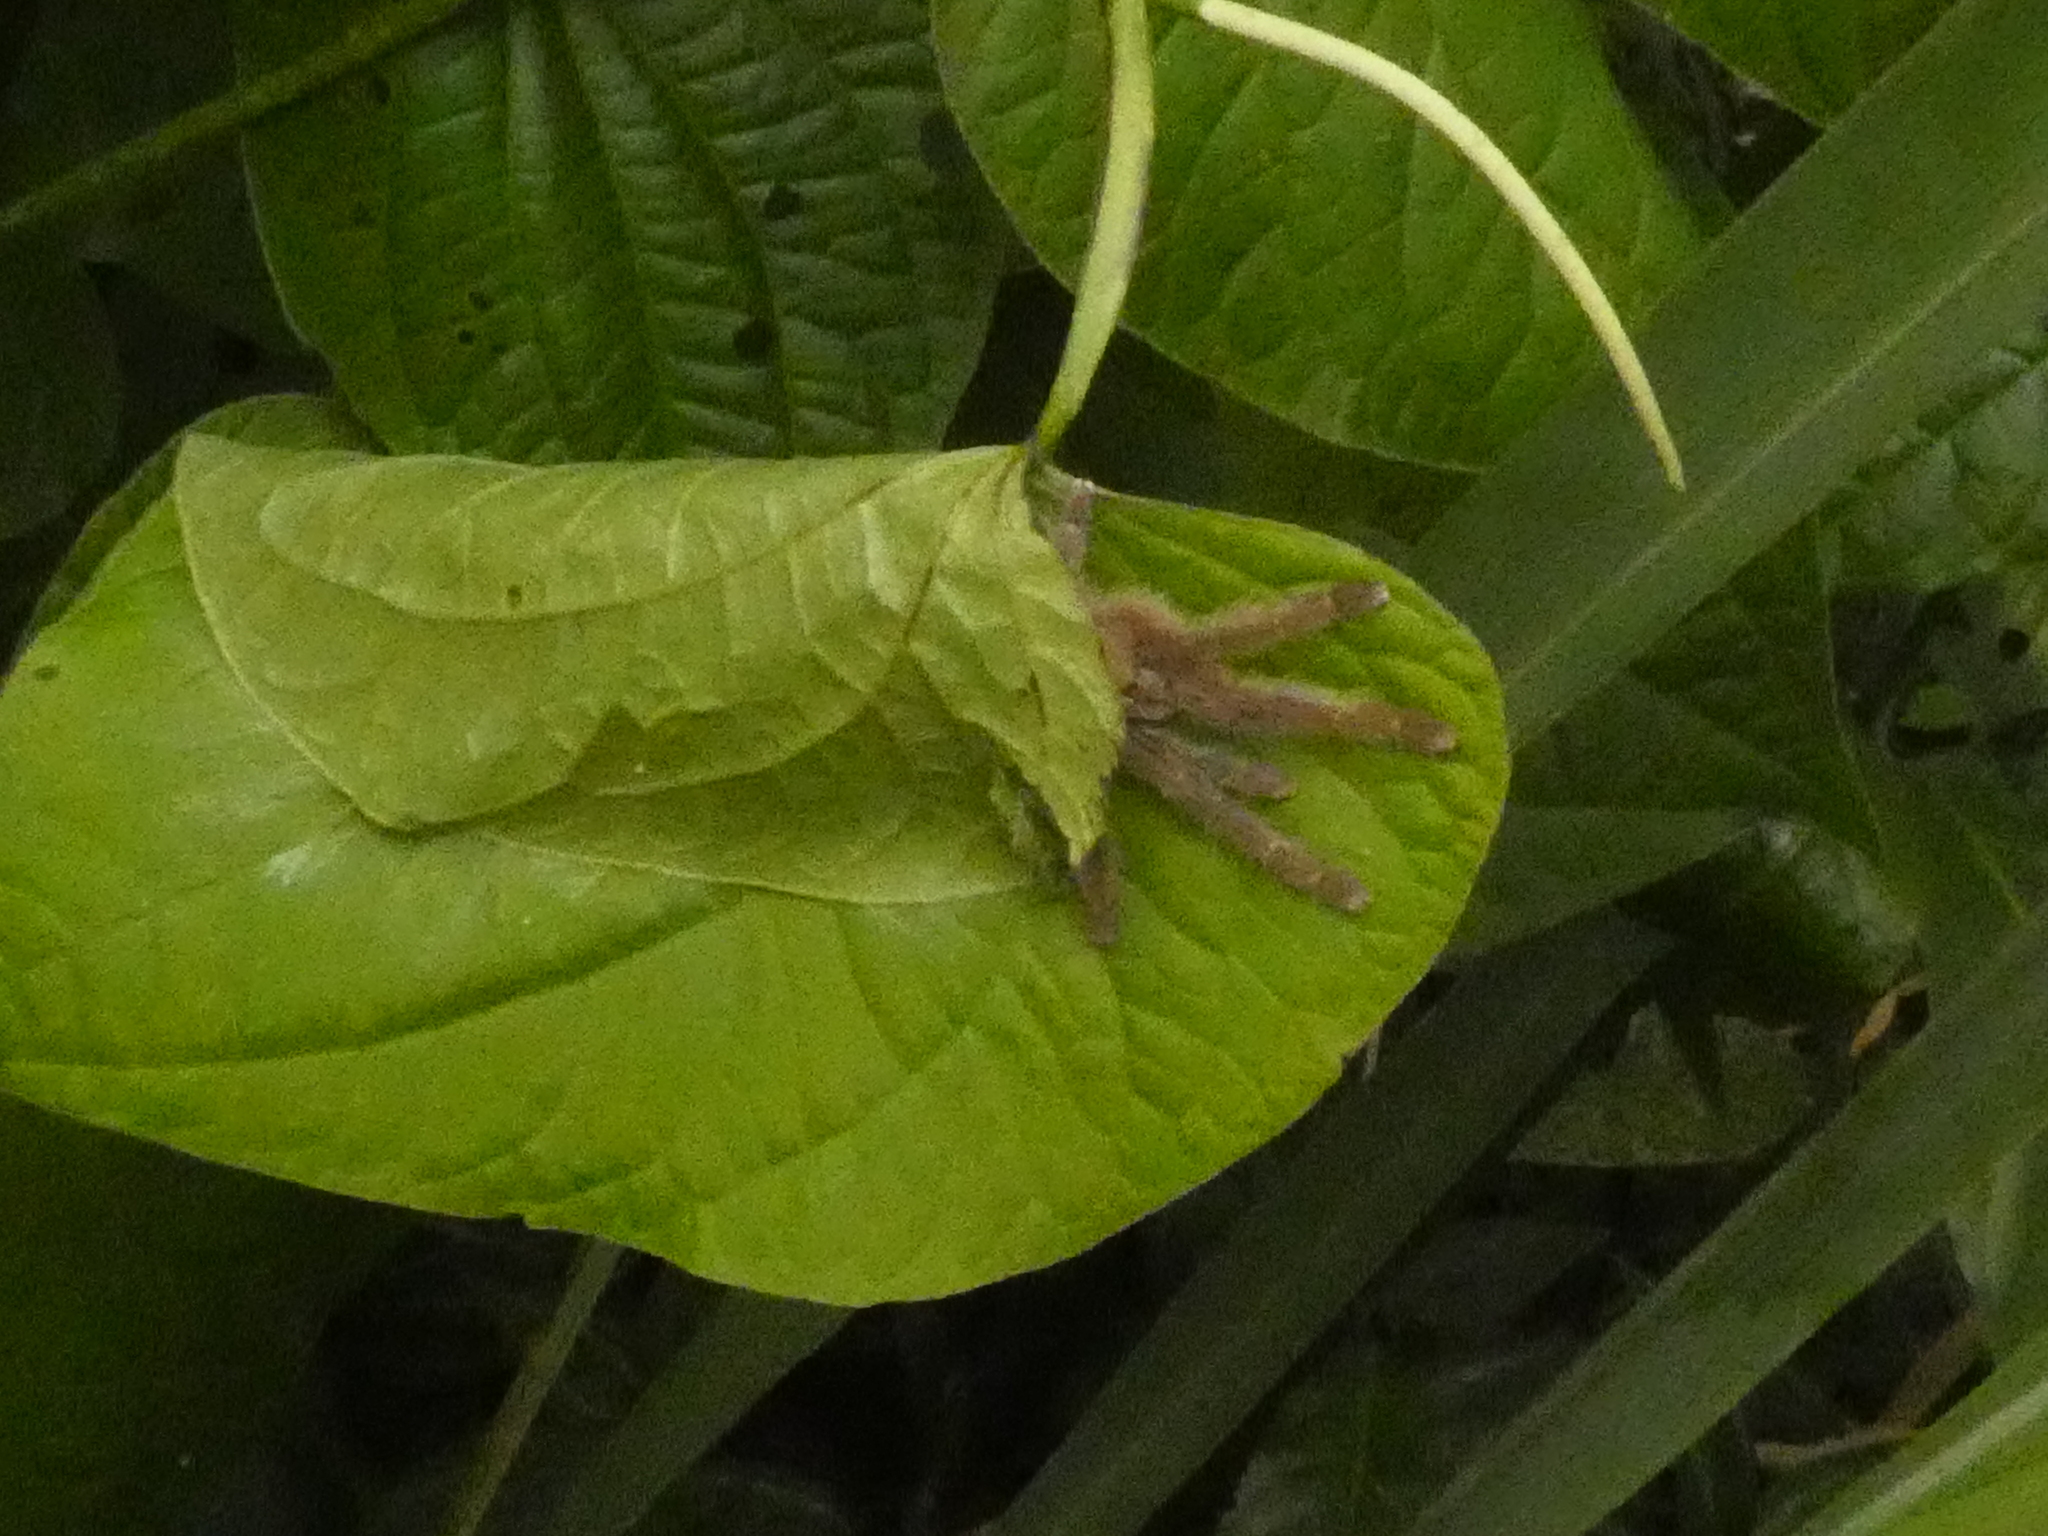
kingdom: Animalia
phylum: Arthropoda
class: Arachnida
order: Araneae
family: Theraphosidae
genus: Iridopelma
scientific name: Iridopelma hirsutum
